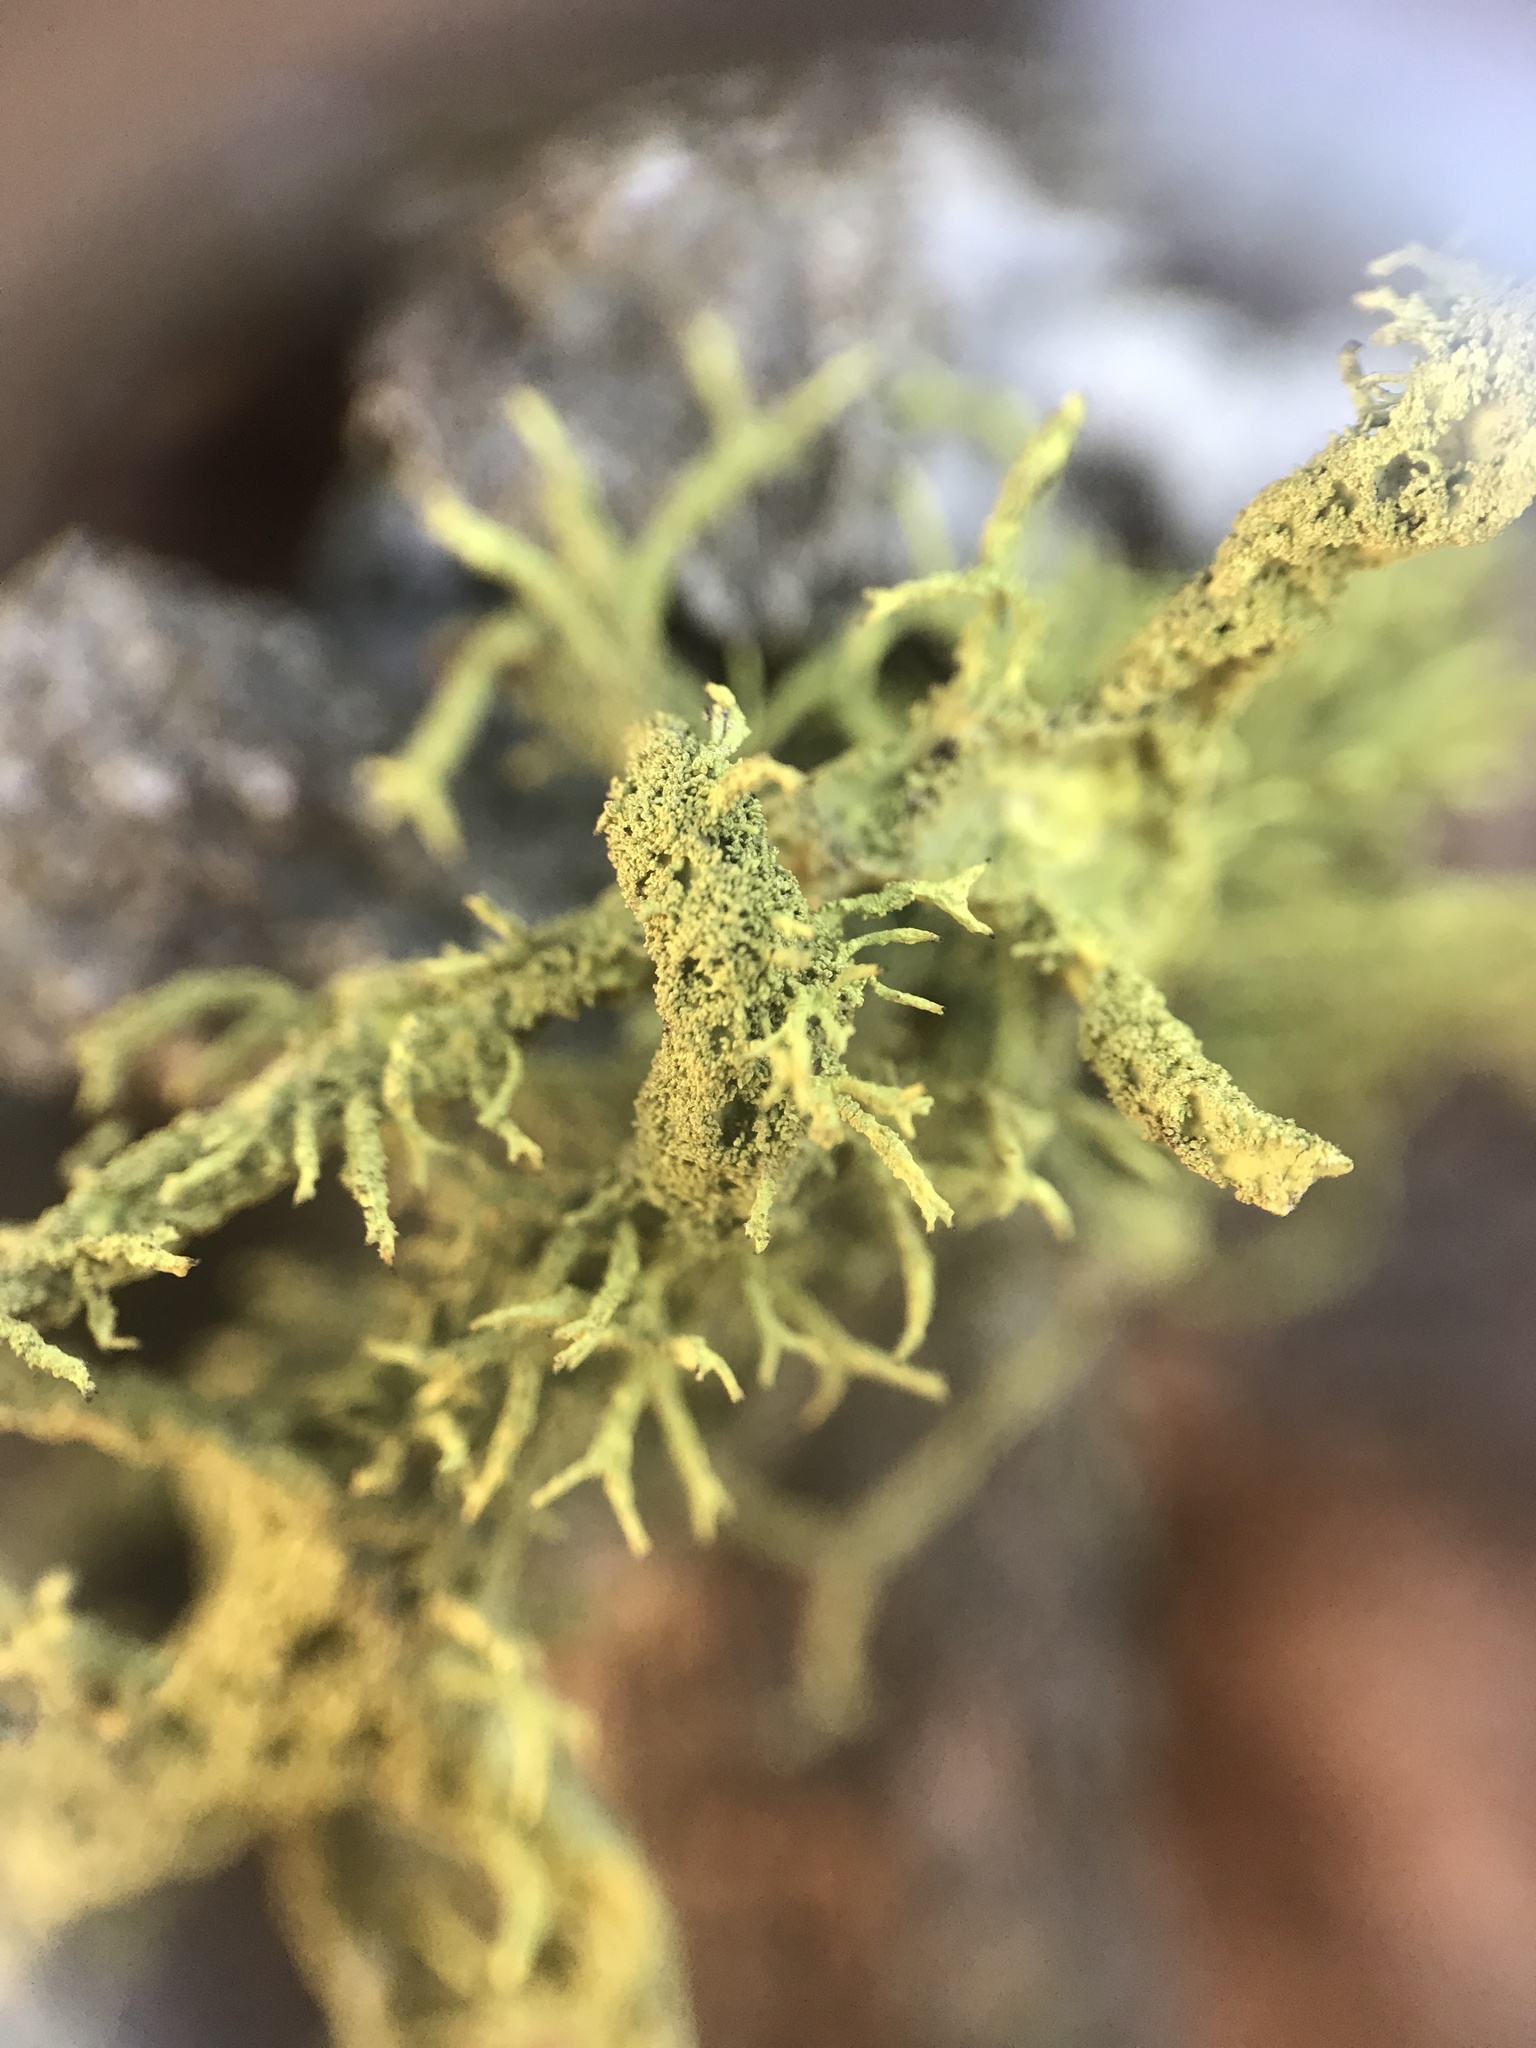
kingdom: Fungi
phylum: Ascomycota
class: Lecanoromycetes
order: Lecanorales
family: Parmeliaceae
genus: Letharia
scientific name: Letharia vulpina
